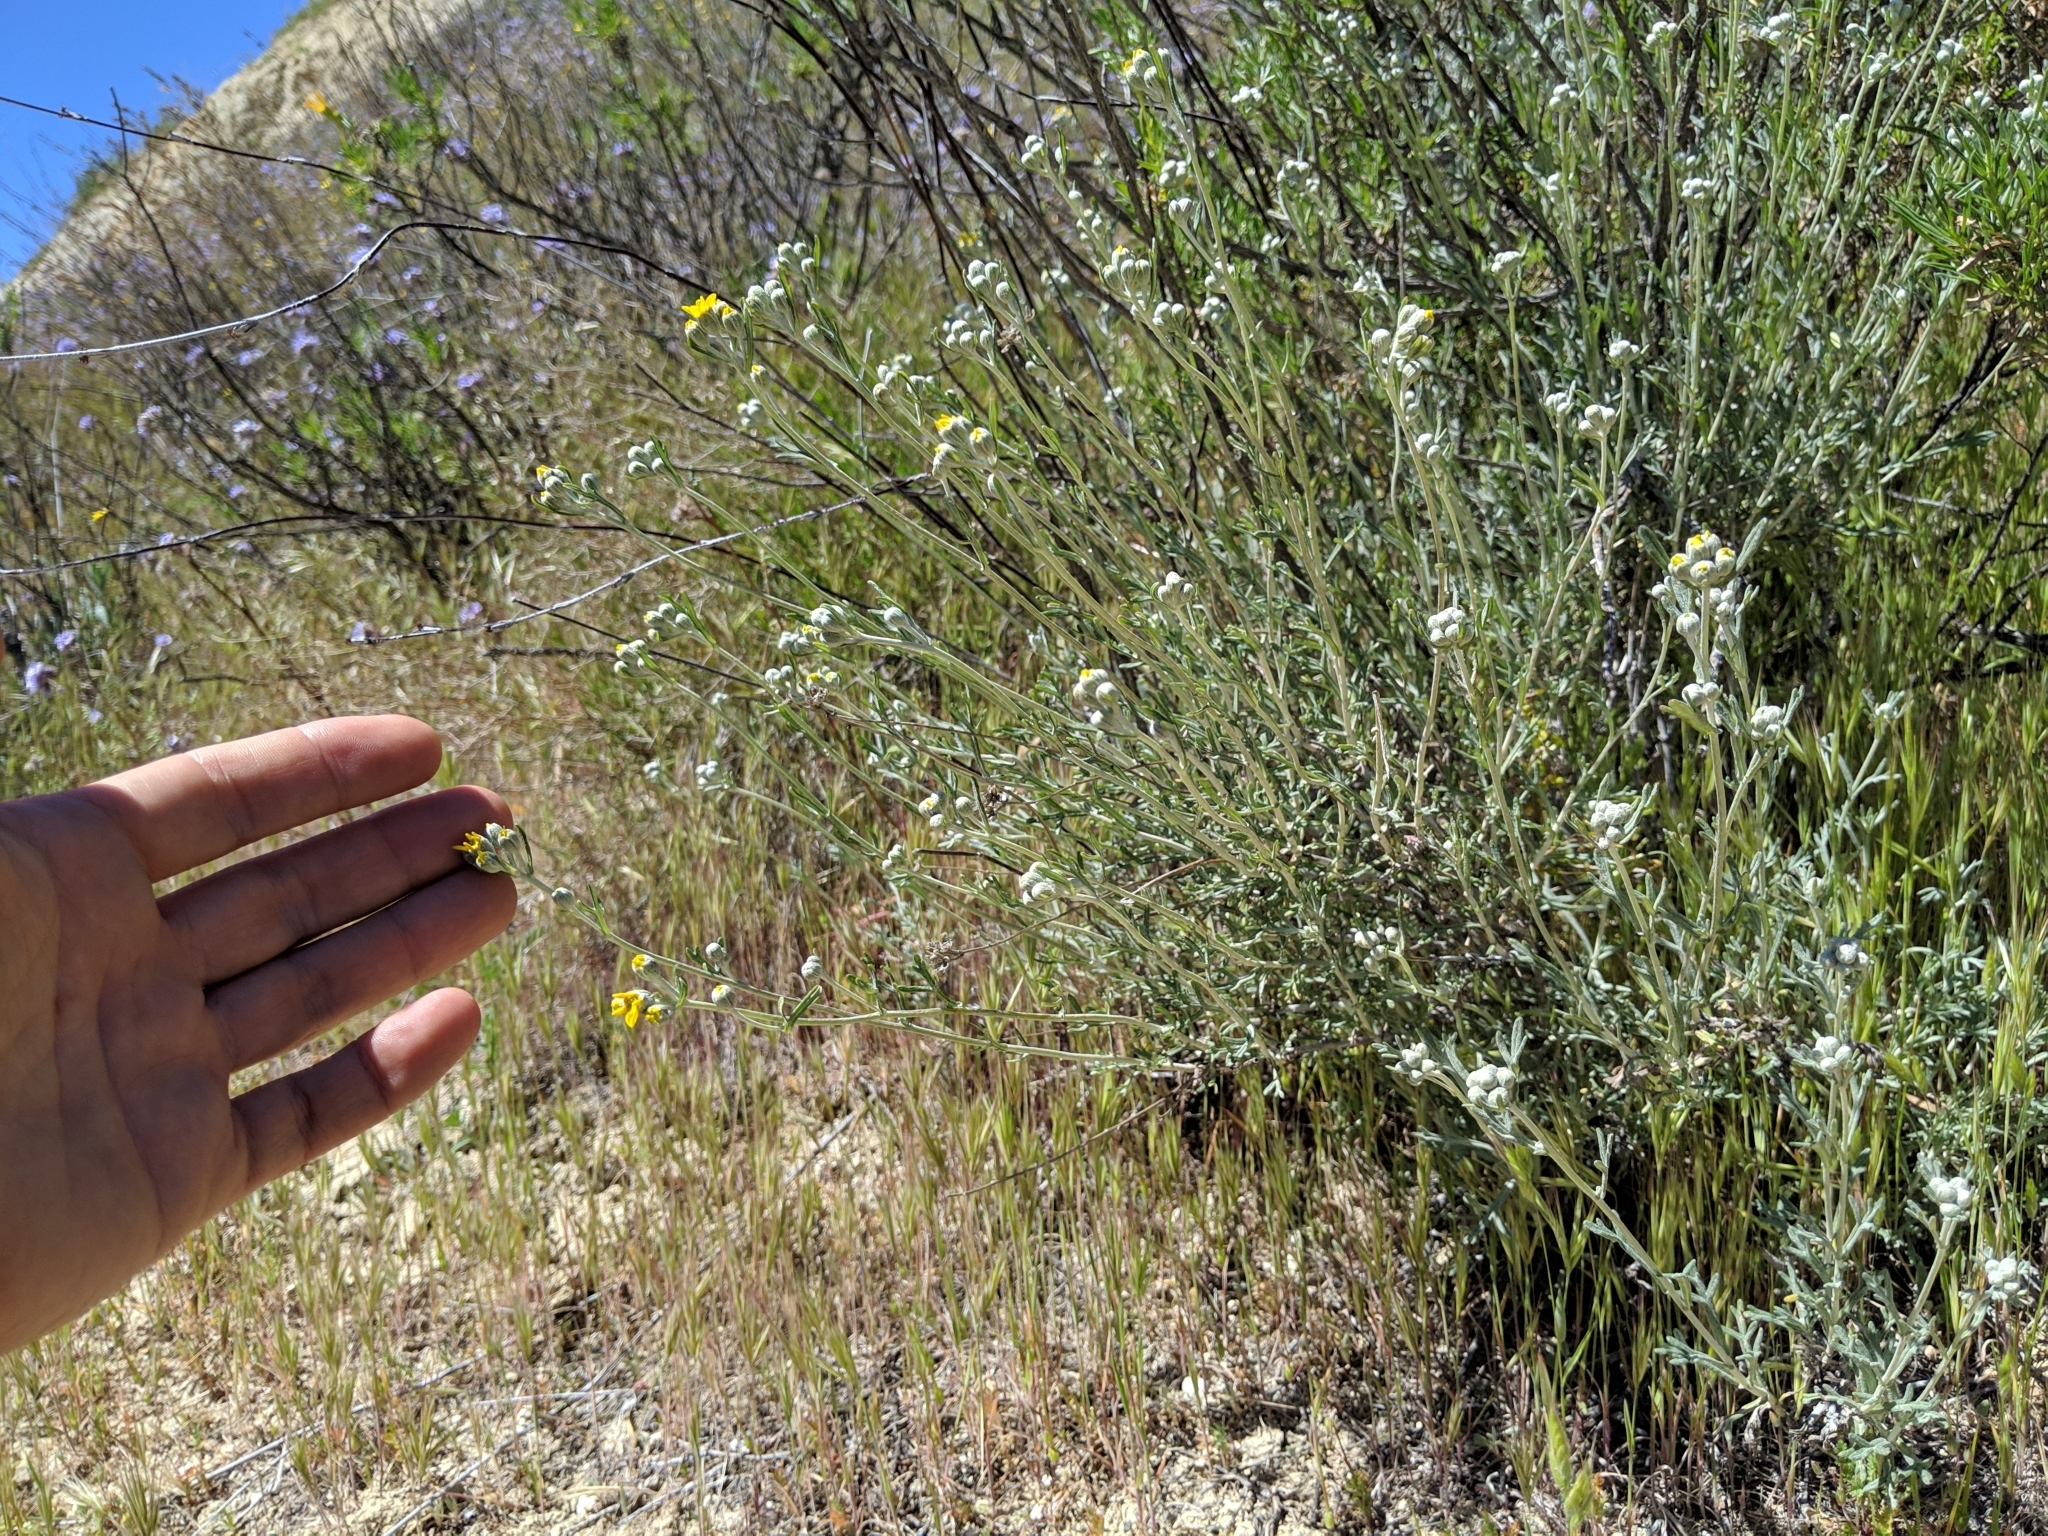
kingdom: Plantae
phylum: Tracheophyta
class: Magnoliopsida
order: Asterales
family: Asteraceae
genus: Eriophyllum
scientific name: Eriophyllum confertiflorum
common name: Golden-yarrow
